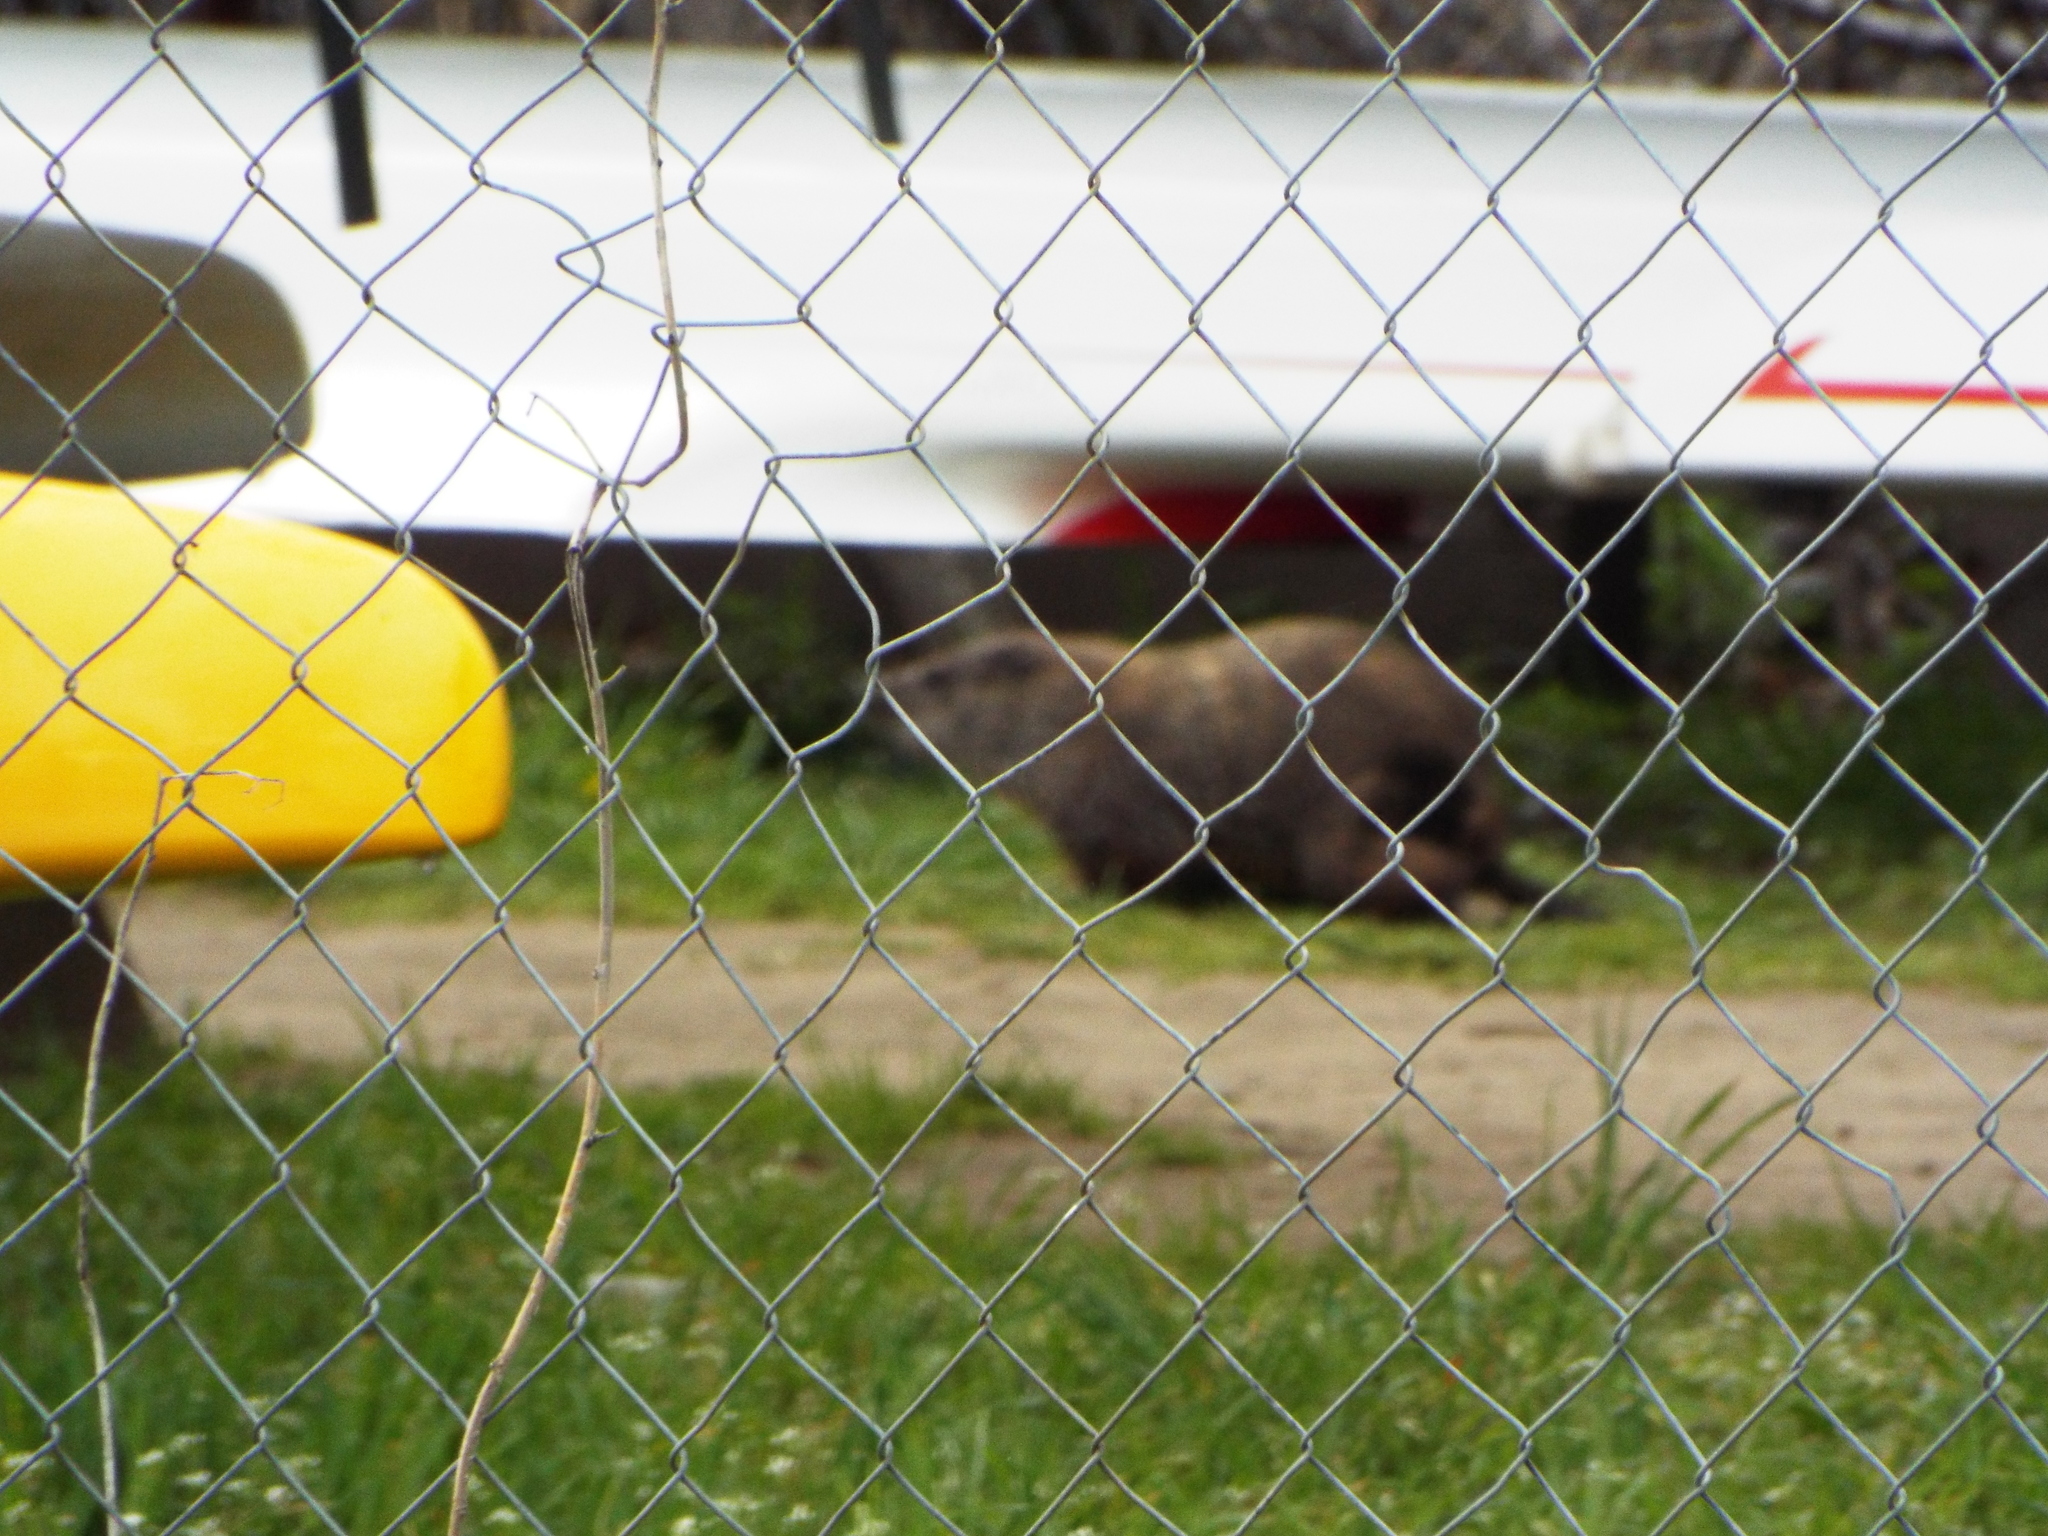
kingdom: Animalia
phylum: Chordata
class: Mammalia
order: Rodentia
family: Sciuridae
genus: Marmota
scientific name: Marmota monax
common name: Groundhog
